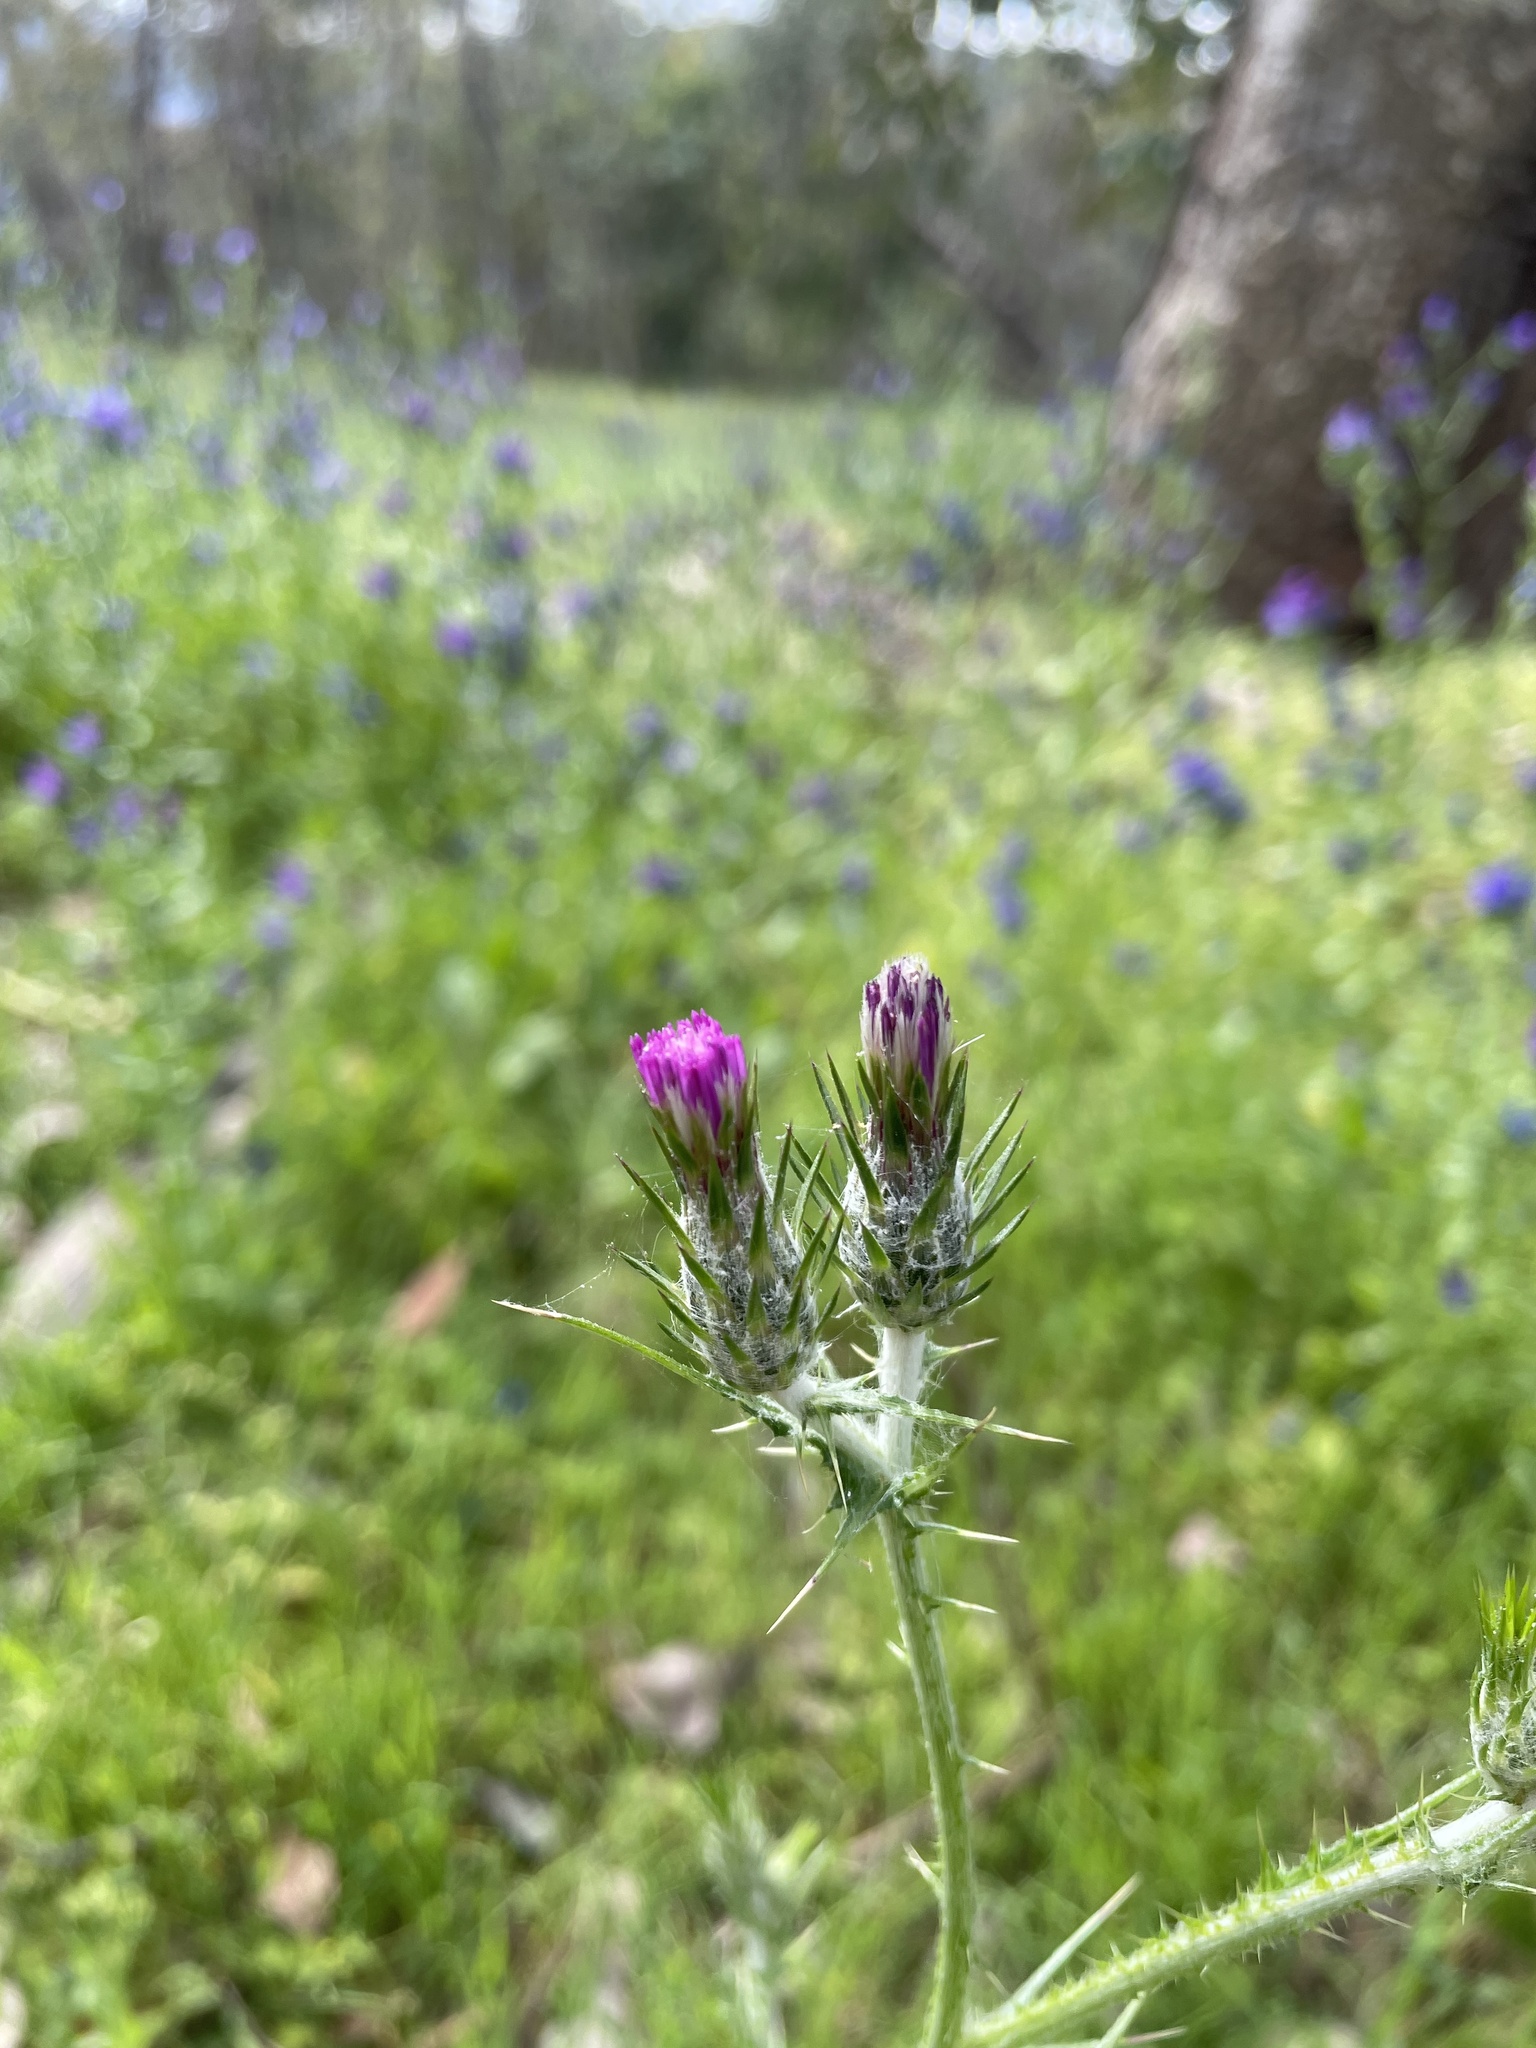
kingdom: Plantae
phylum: Tracheophyta
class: Magnoliopsida
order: Asterales
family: Asteraceae
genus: Carduus
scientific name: Carduus pycnocephalus
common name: Plymouth thistle
